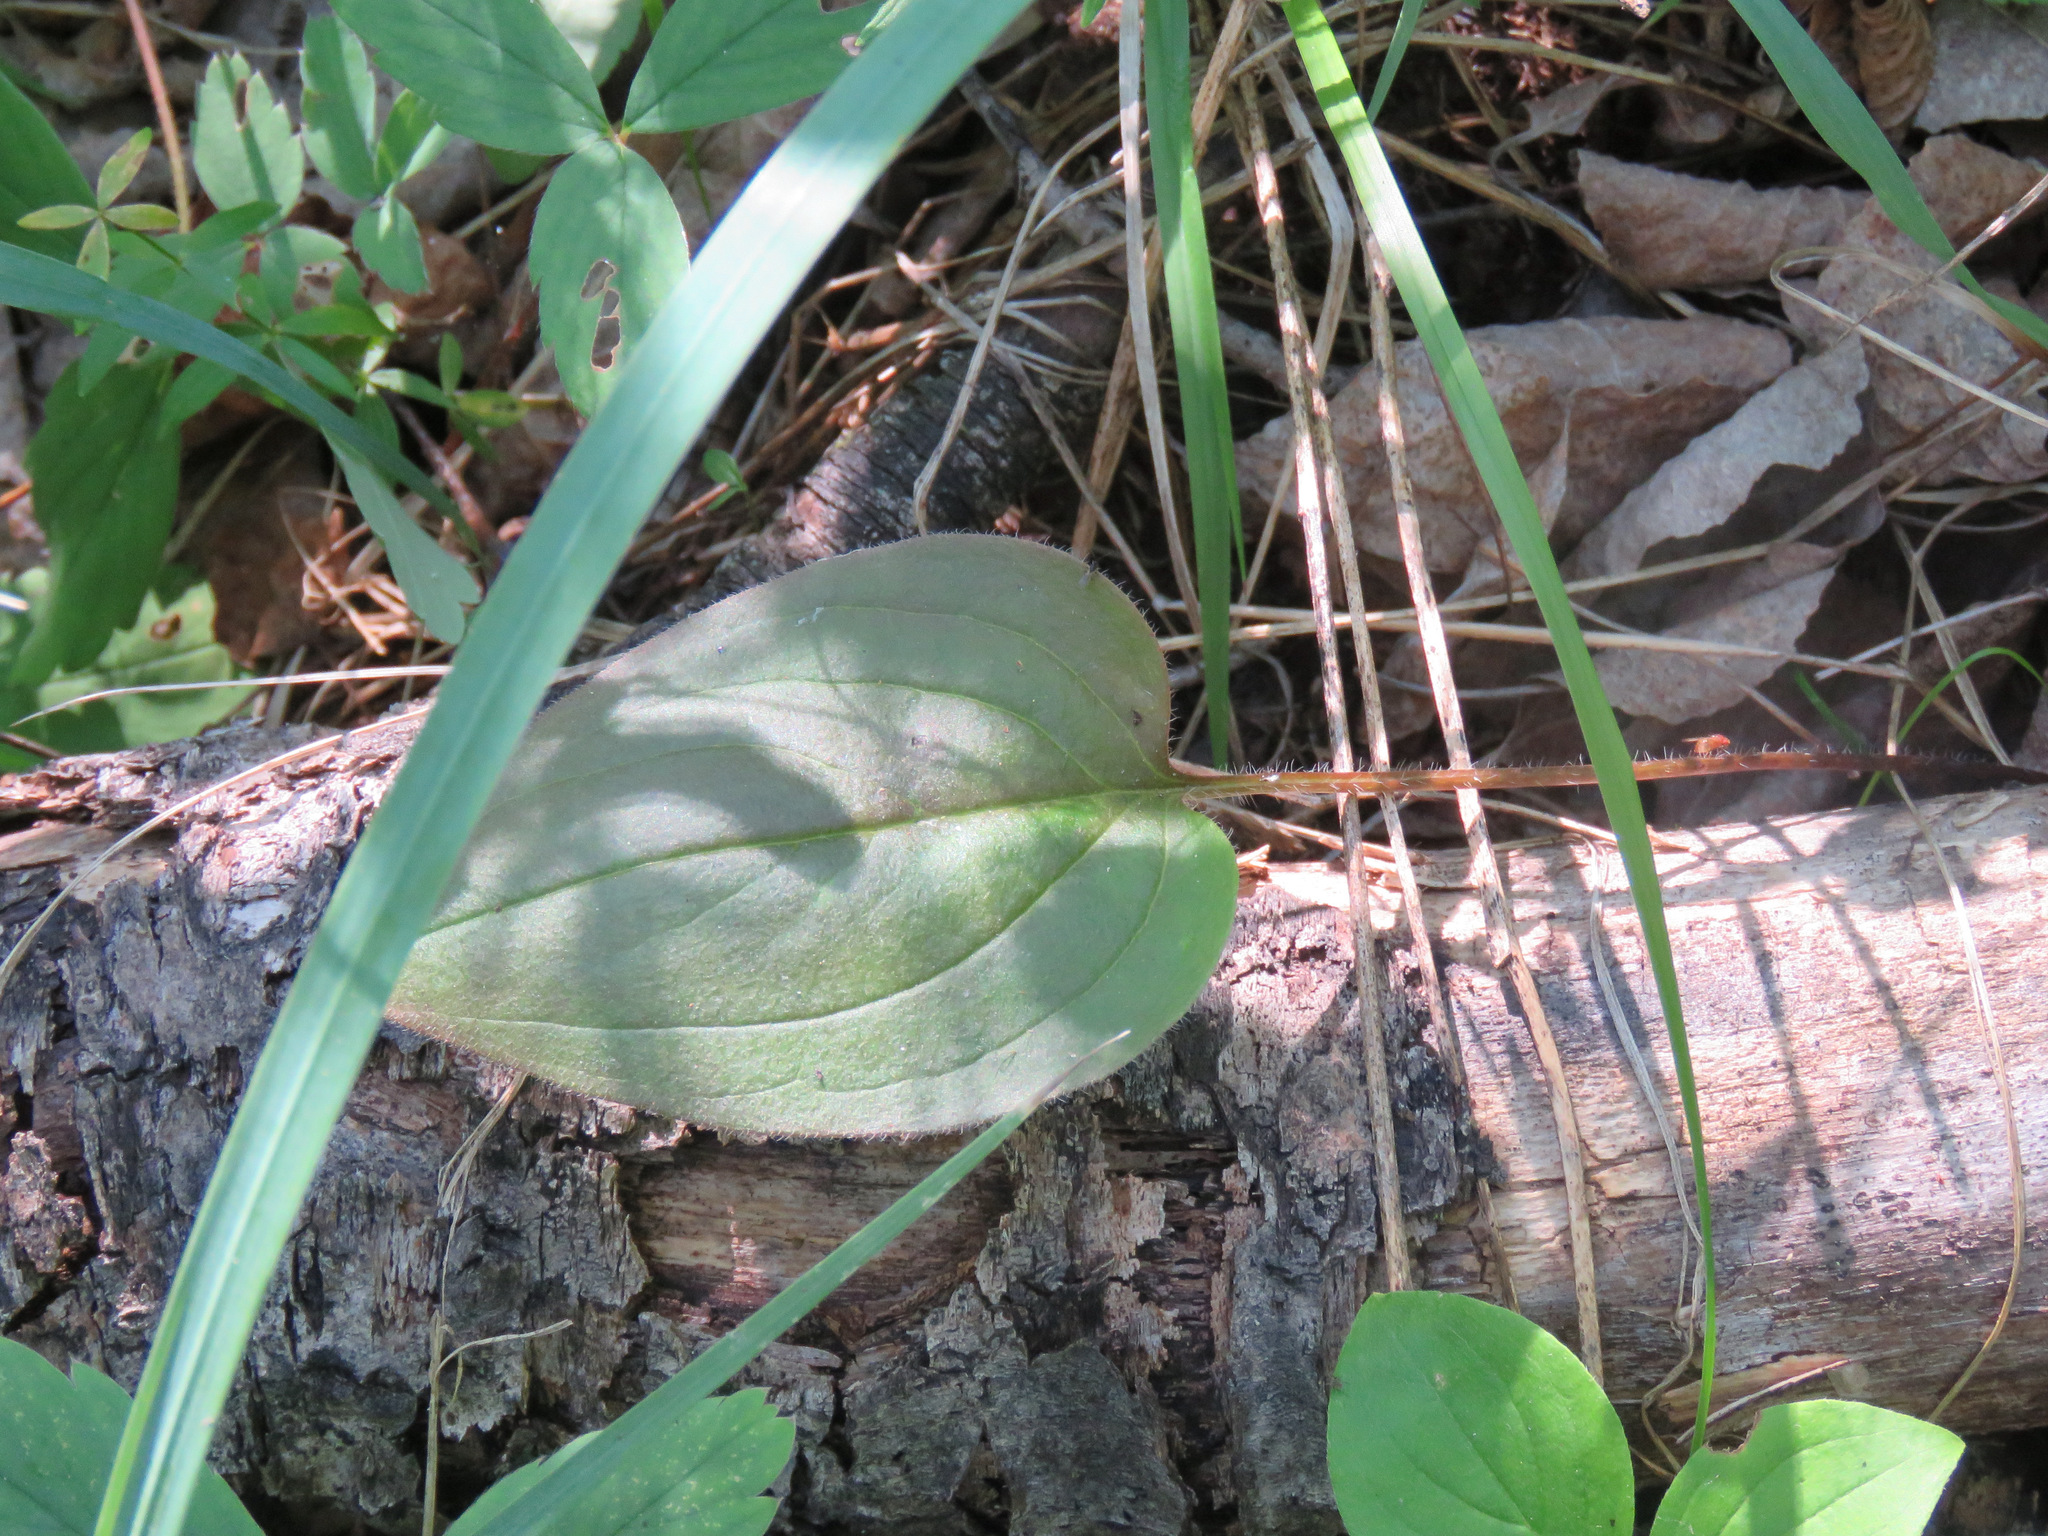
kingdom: Plantae
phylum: Tracheophyta
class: Magnoliopsida
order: Boraginales
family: Boraginaceae
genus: Mertensia
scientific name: Mertensia paniculata
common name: Panicled bluebells
